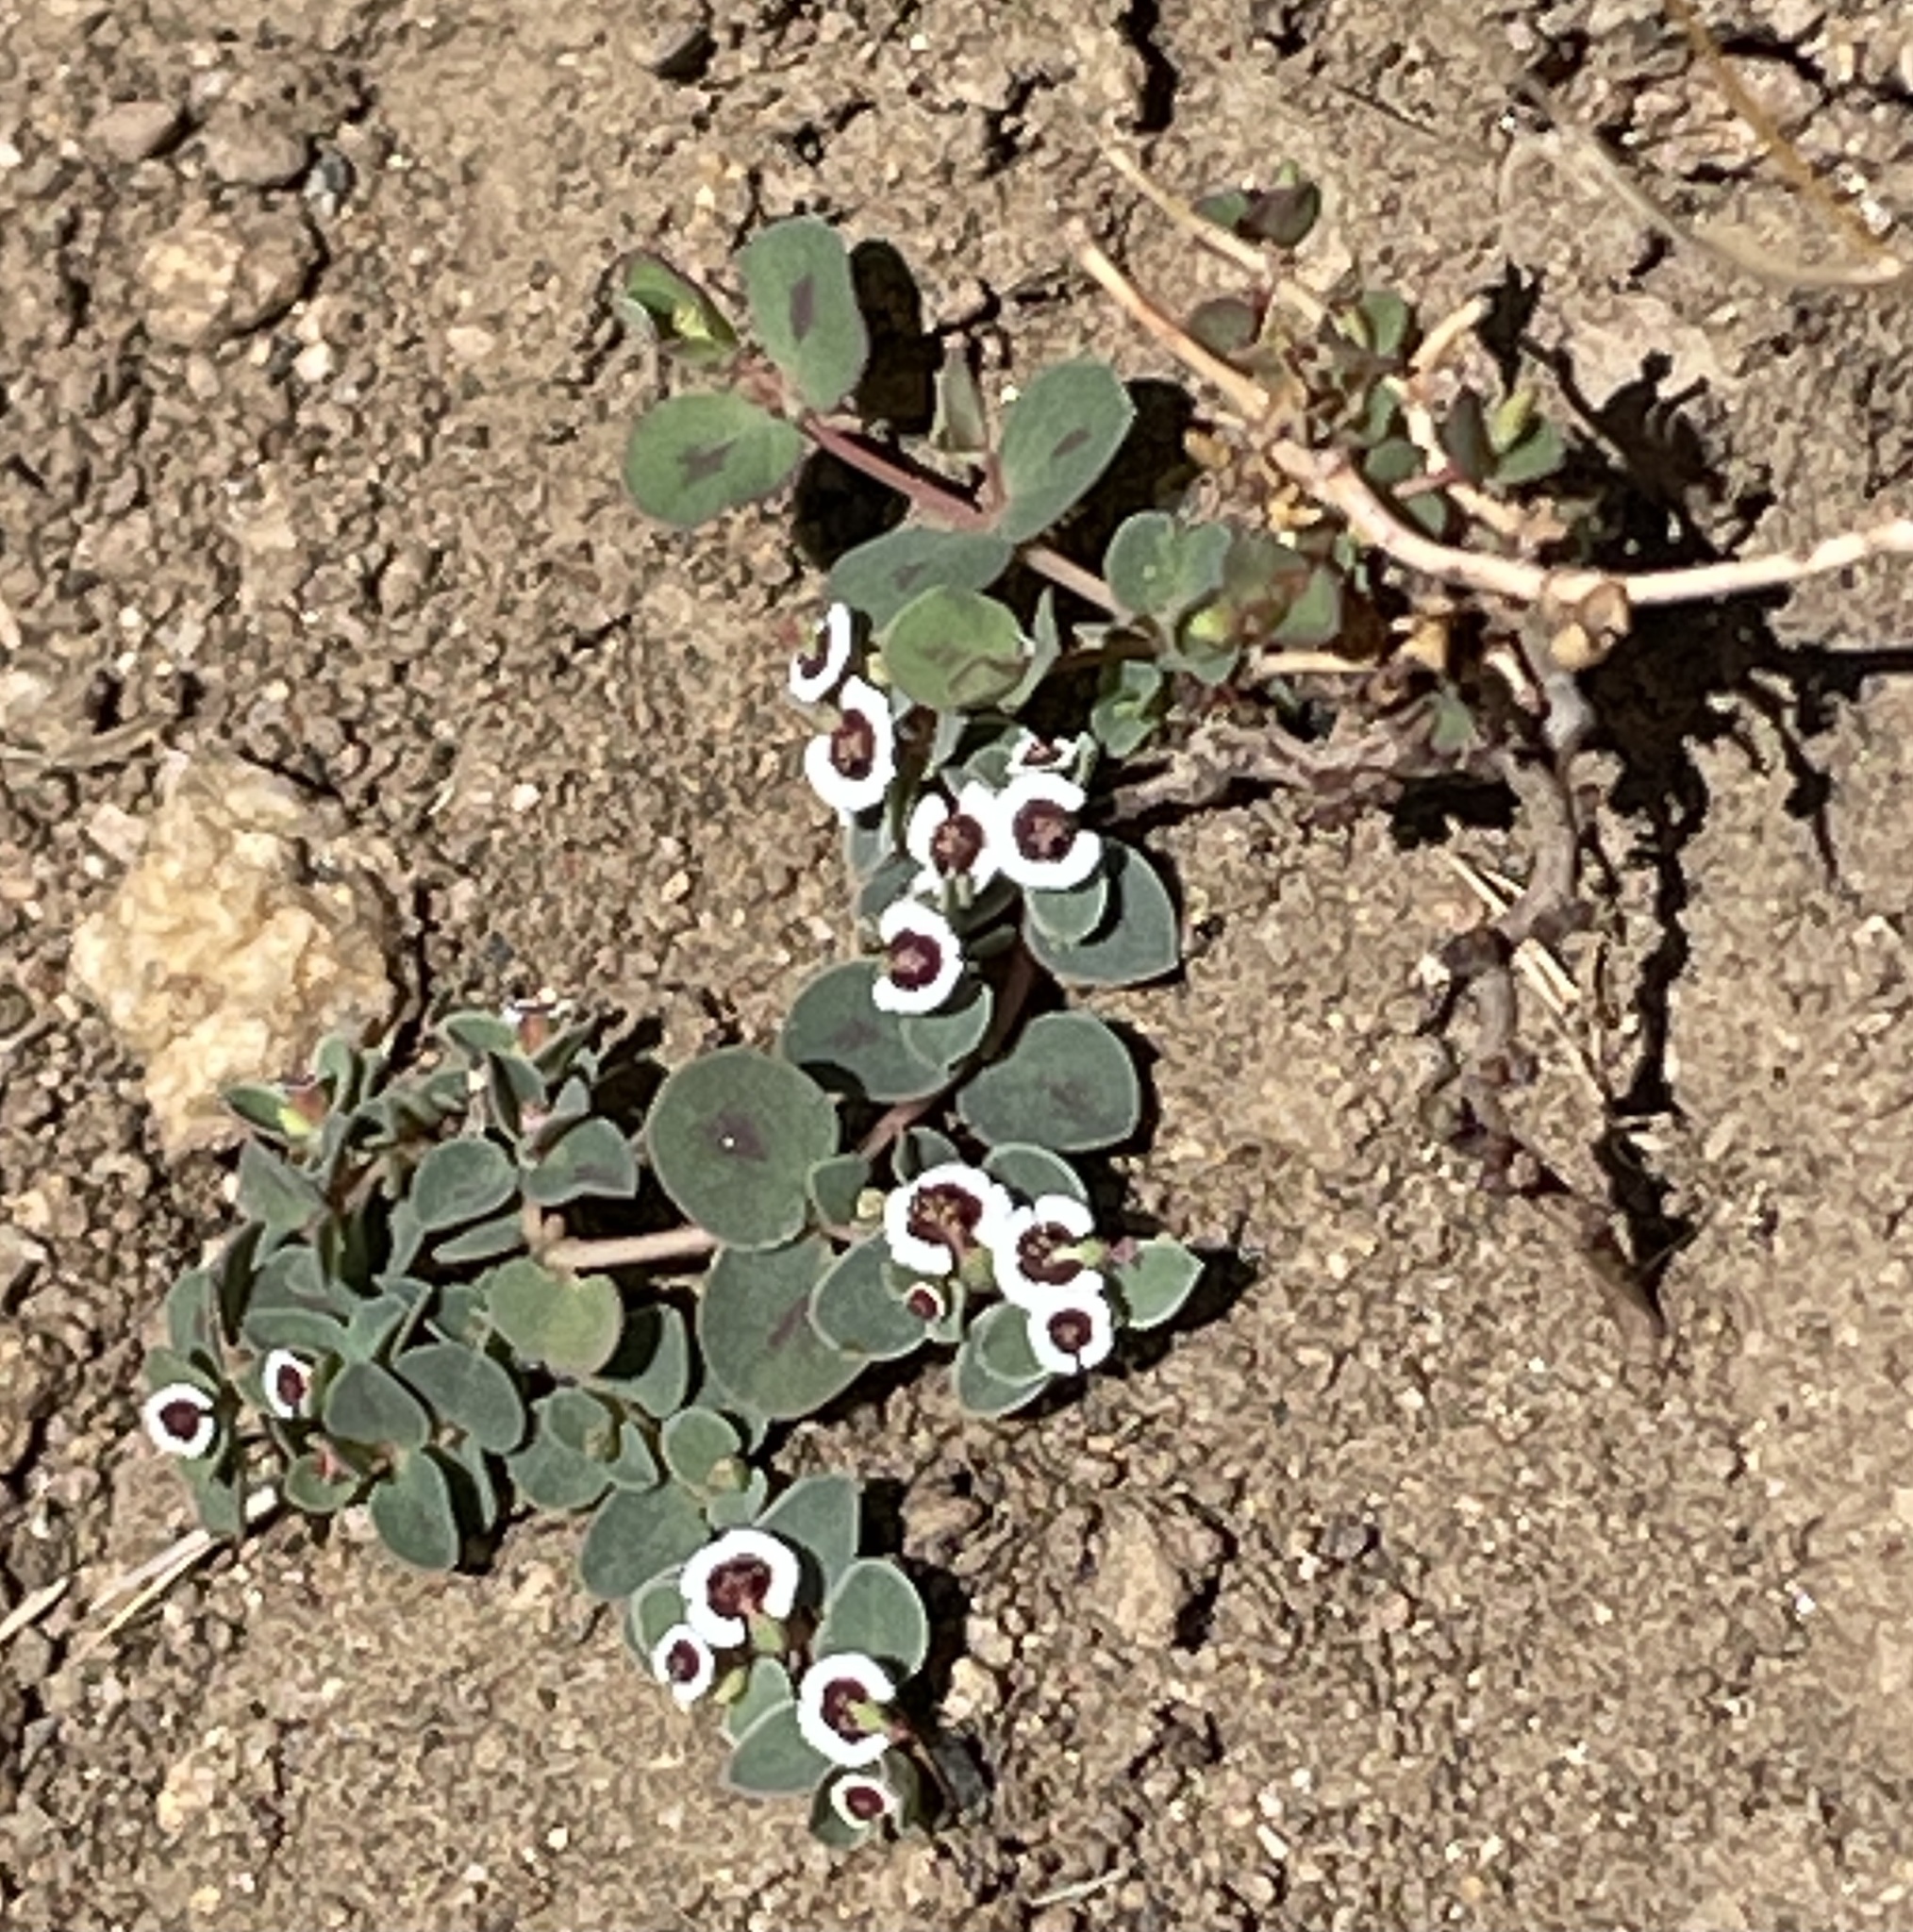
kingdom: Plantae
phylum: Tracheophyta
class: Magnoliopsida
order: Malpighiales
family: Euphorbiaceae
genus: Euphorbia
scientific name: Euphorbia albomarginata
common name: Whitemargin sandmat
